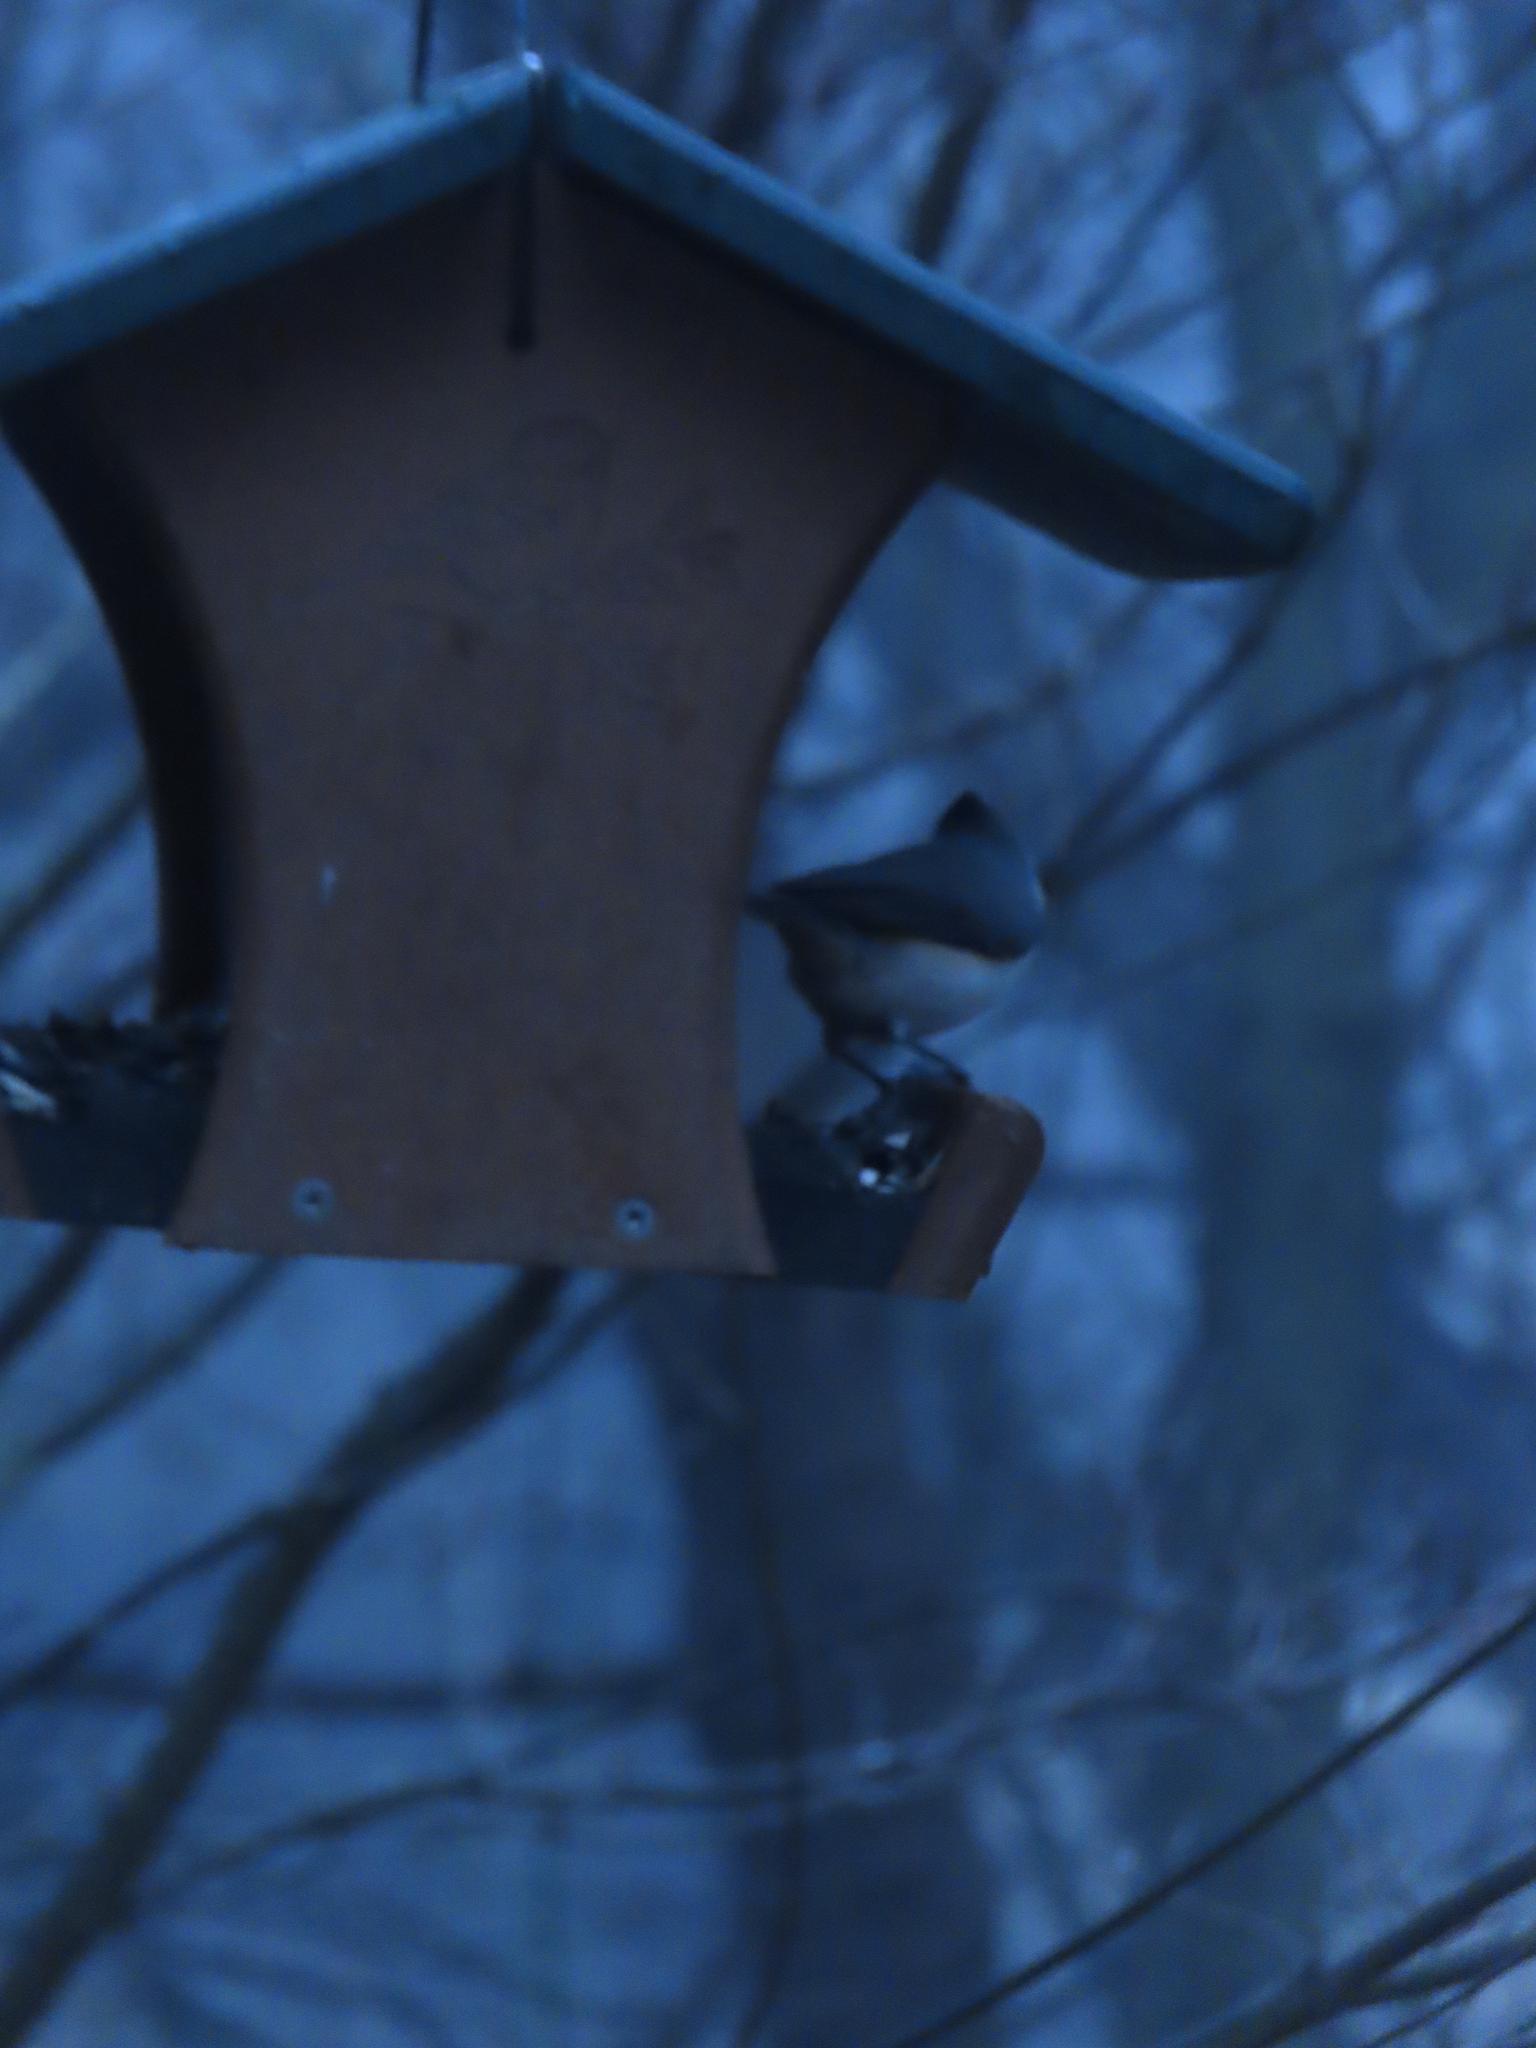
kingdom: Animalia
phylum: Chordata
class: Aves
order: Passeriformes
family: Paridae
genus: Baeolophus
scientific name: Baeolophus bicolor
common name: Tufted titmouse
